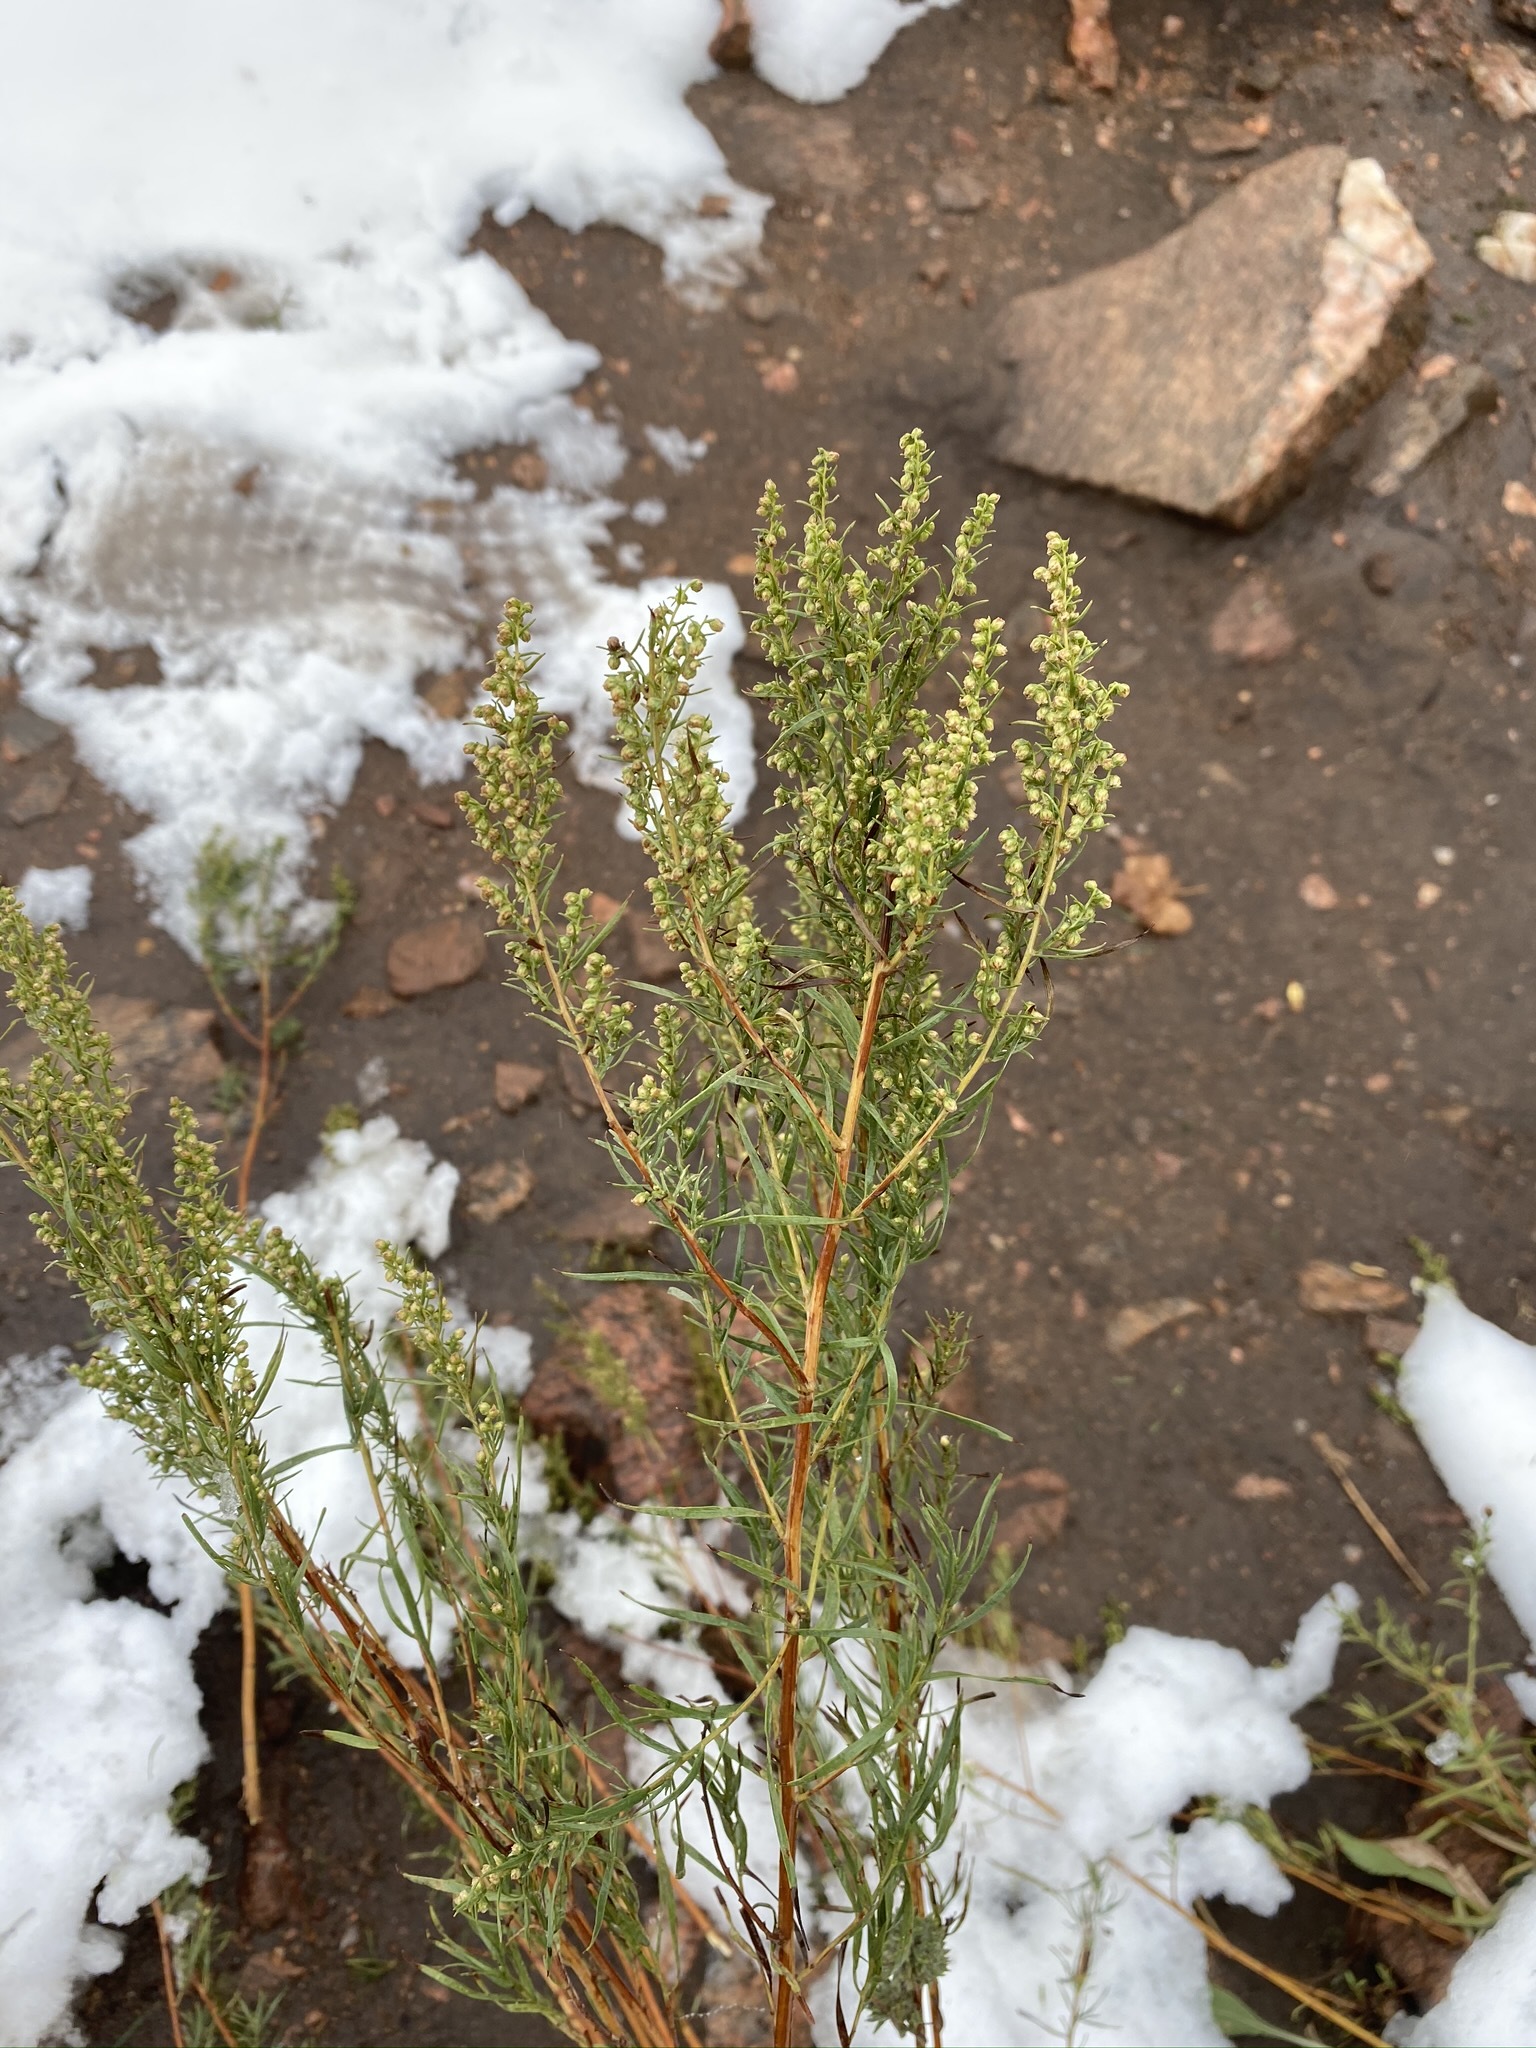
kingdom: Plantae
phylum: Tracheophyta
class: Magnoliopsida
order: Asterales
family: Asteraceae
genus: Artemisia
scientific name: Artemisia dracunculus
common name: Tarragon
